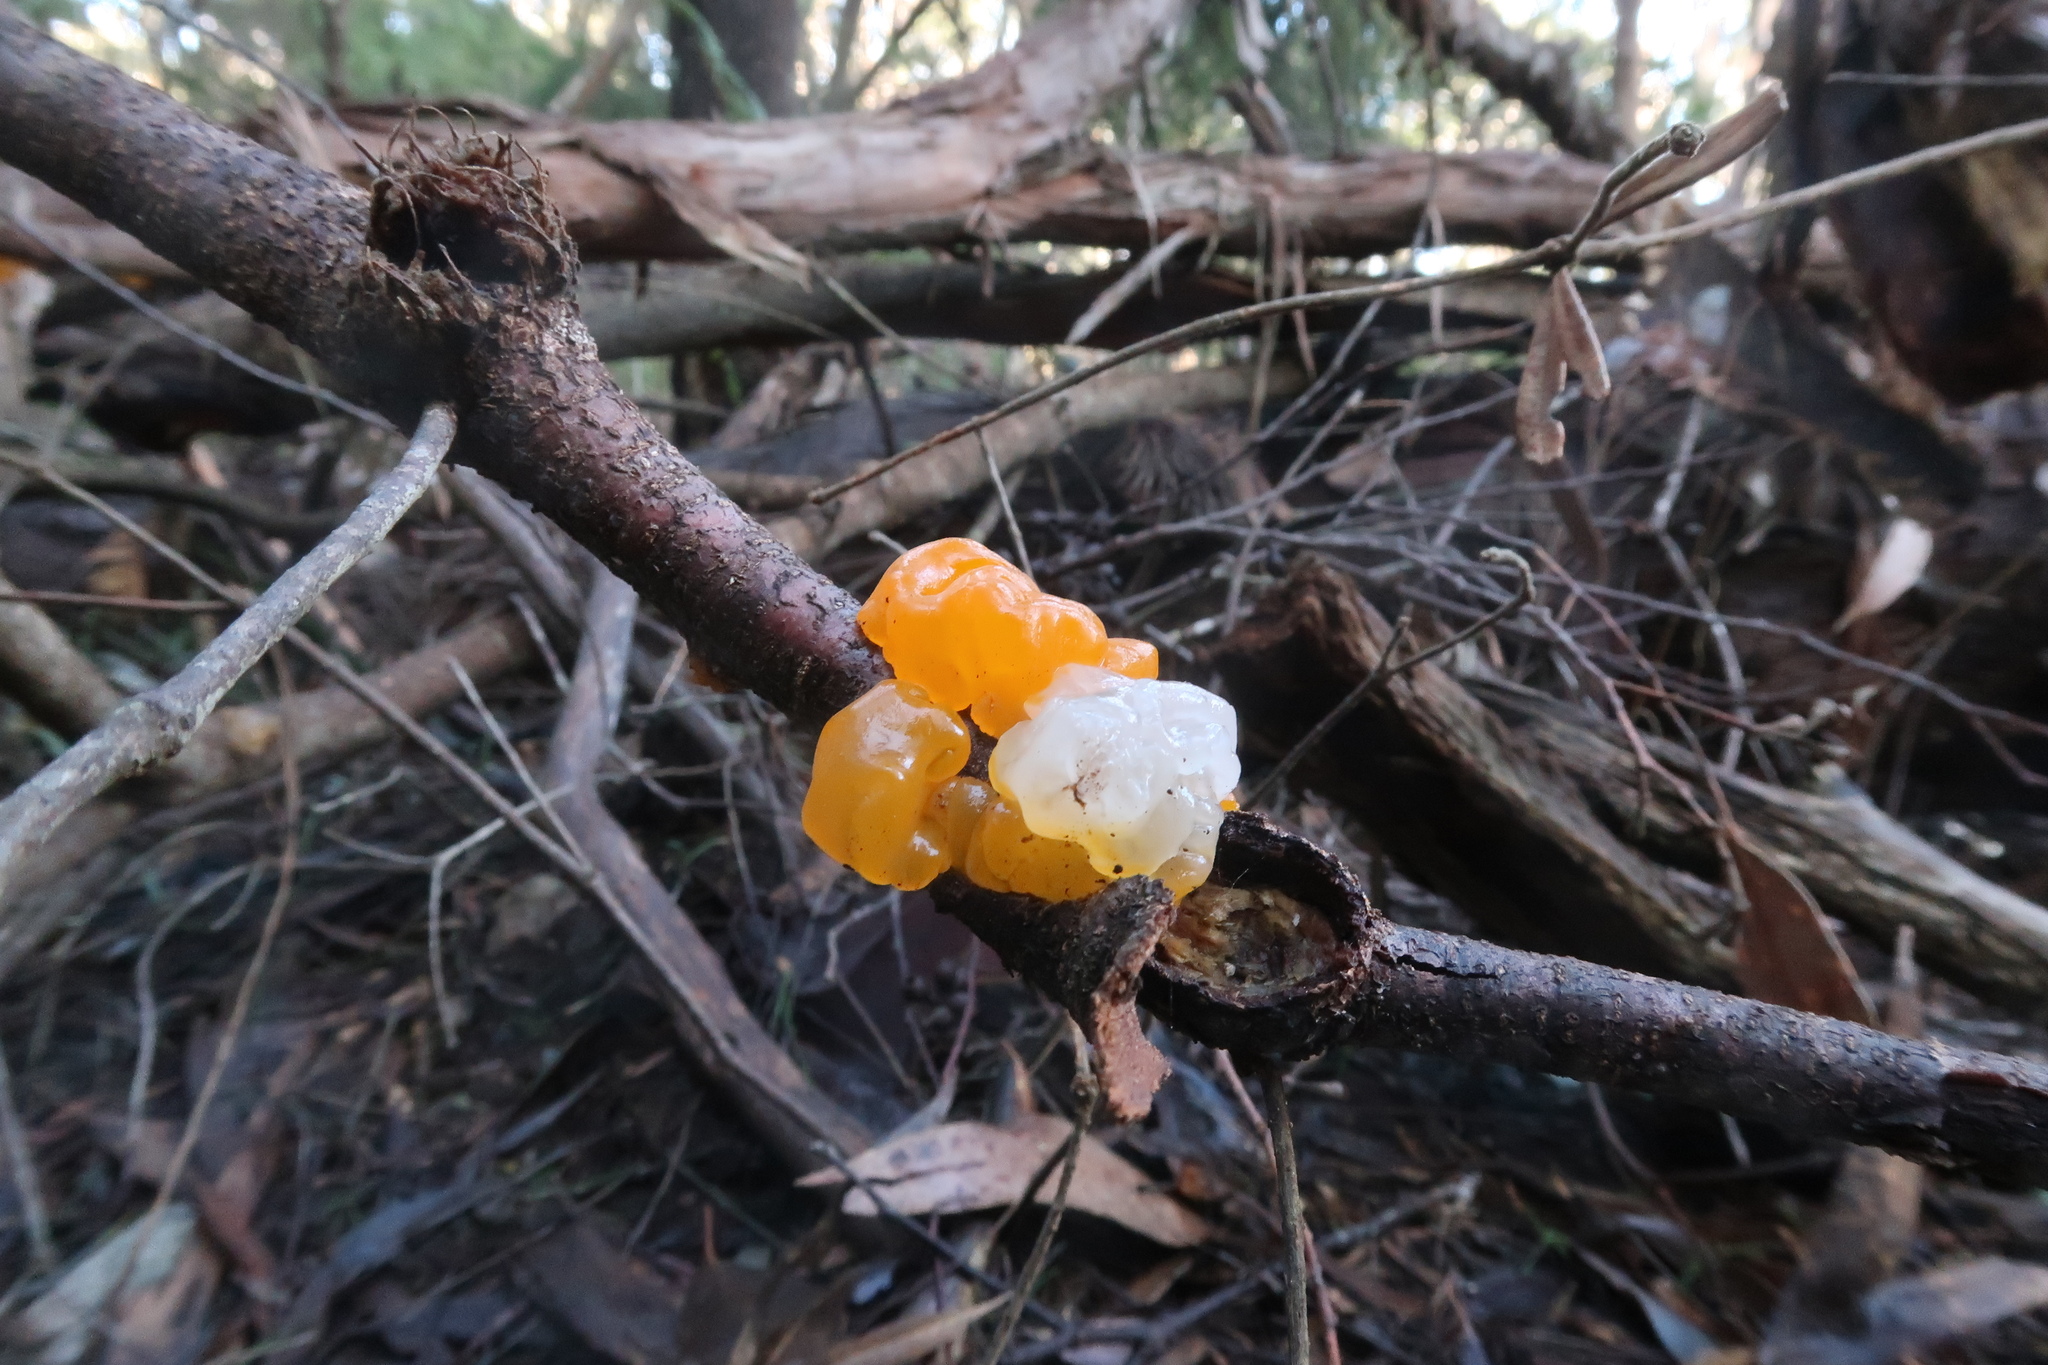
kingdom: Fungi
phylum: Basidiomycota
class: Tremellomycetes
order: Tremellales
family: Tremellaceae
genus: Tremella
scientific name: Tremella mesenterica
